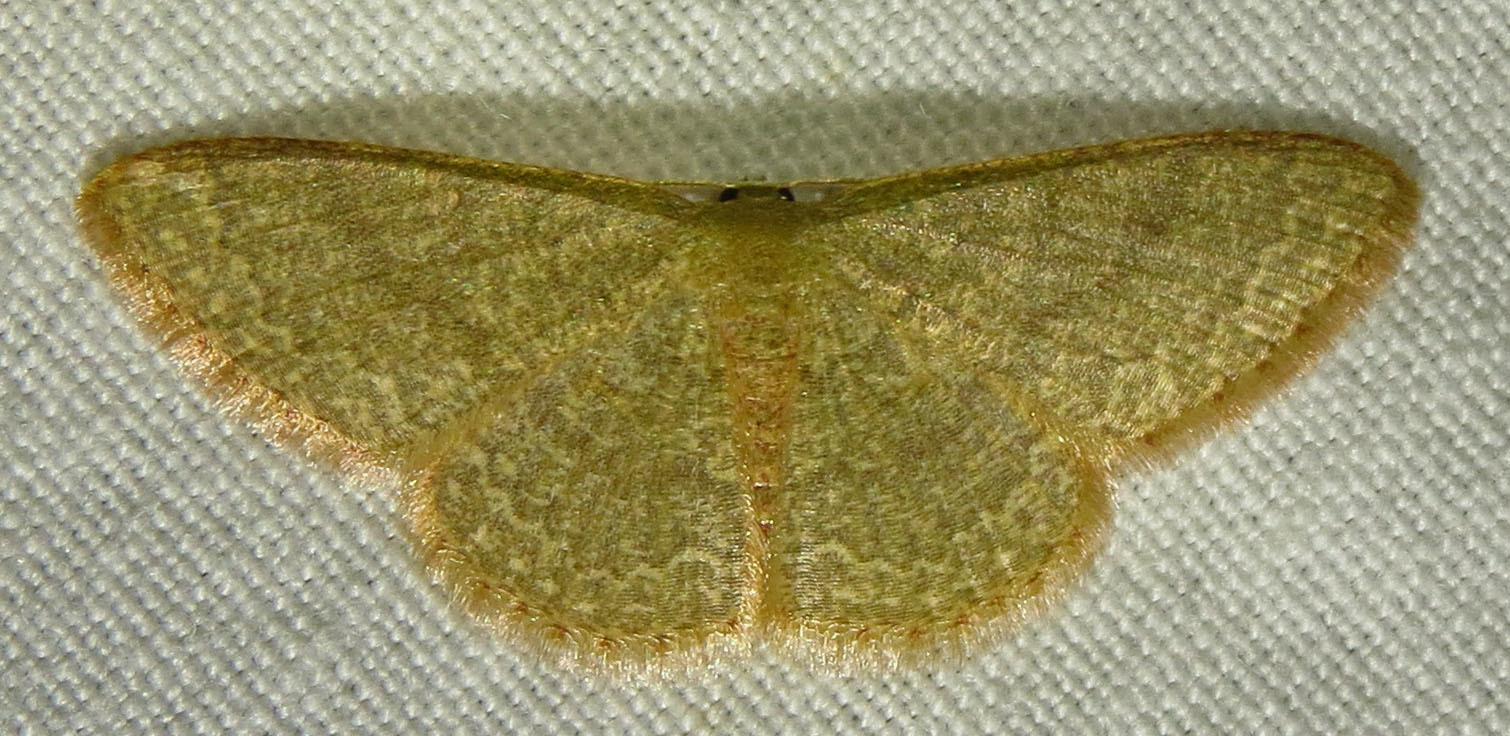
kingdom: Animalia
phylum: Arthropoda
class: Insecta
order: Lepidoptera
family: Geometridae
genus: Pleuroprucha
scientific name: Pleuroprucha insulsaria
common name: Common tan wave
